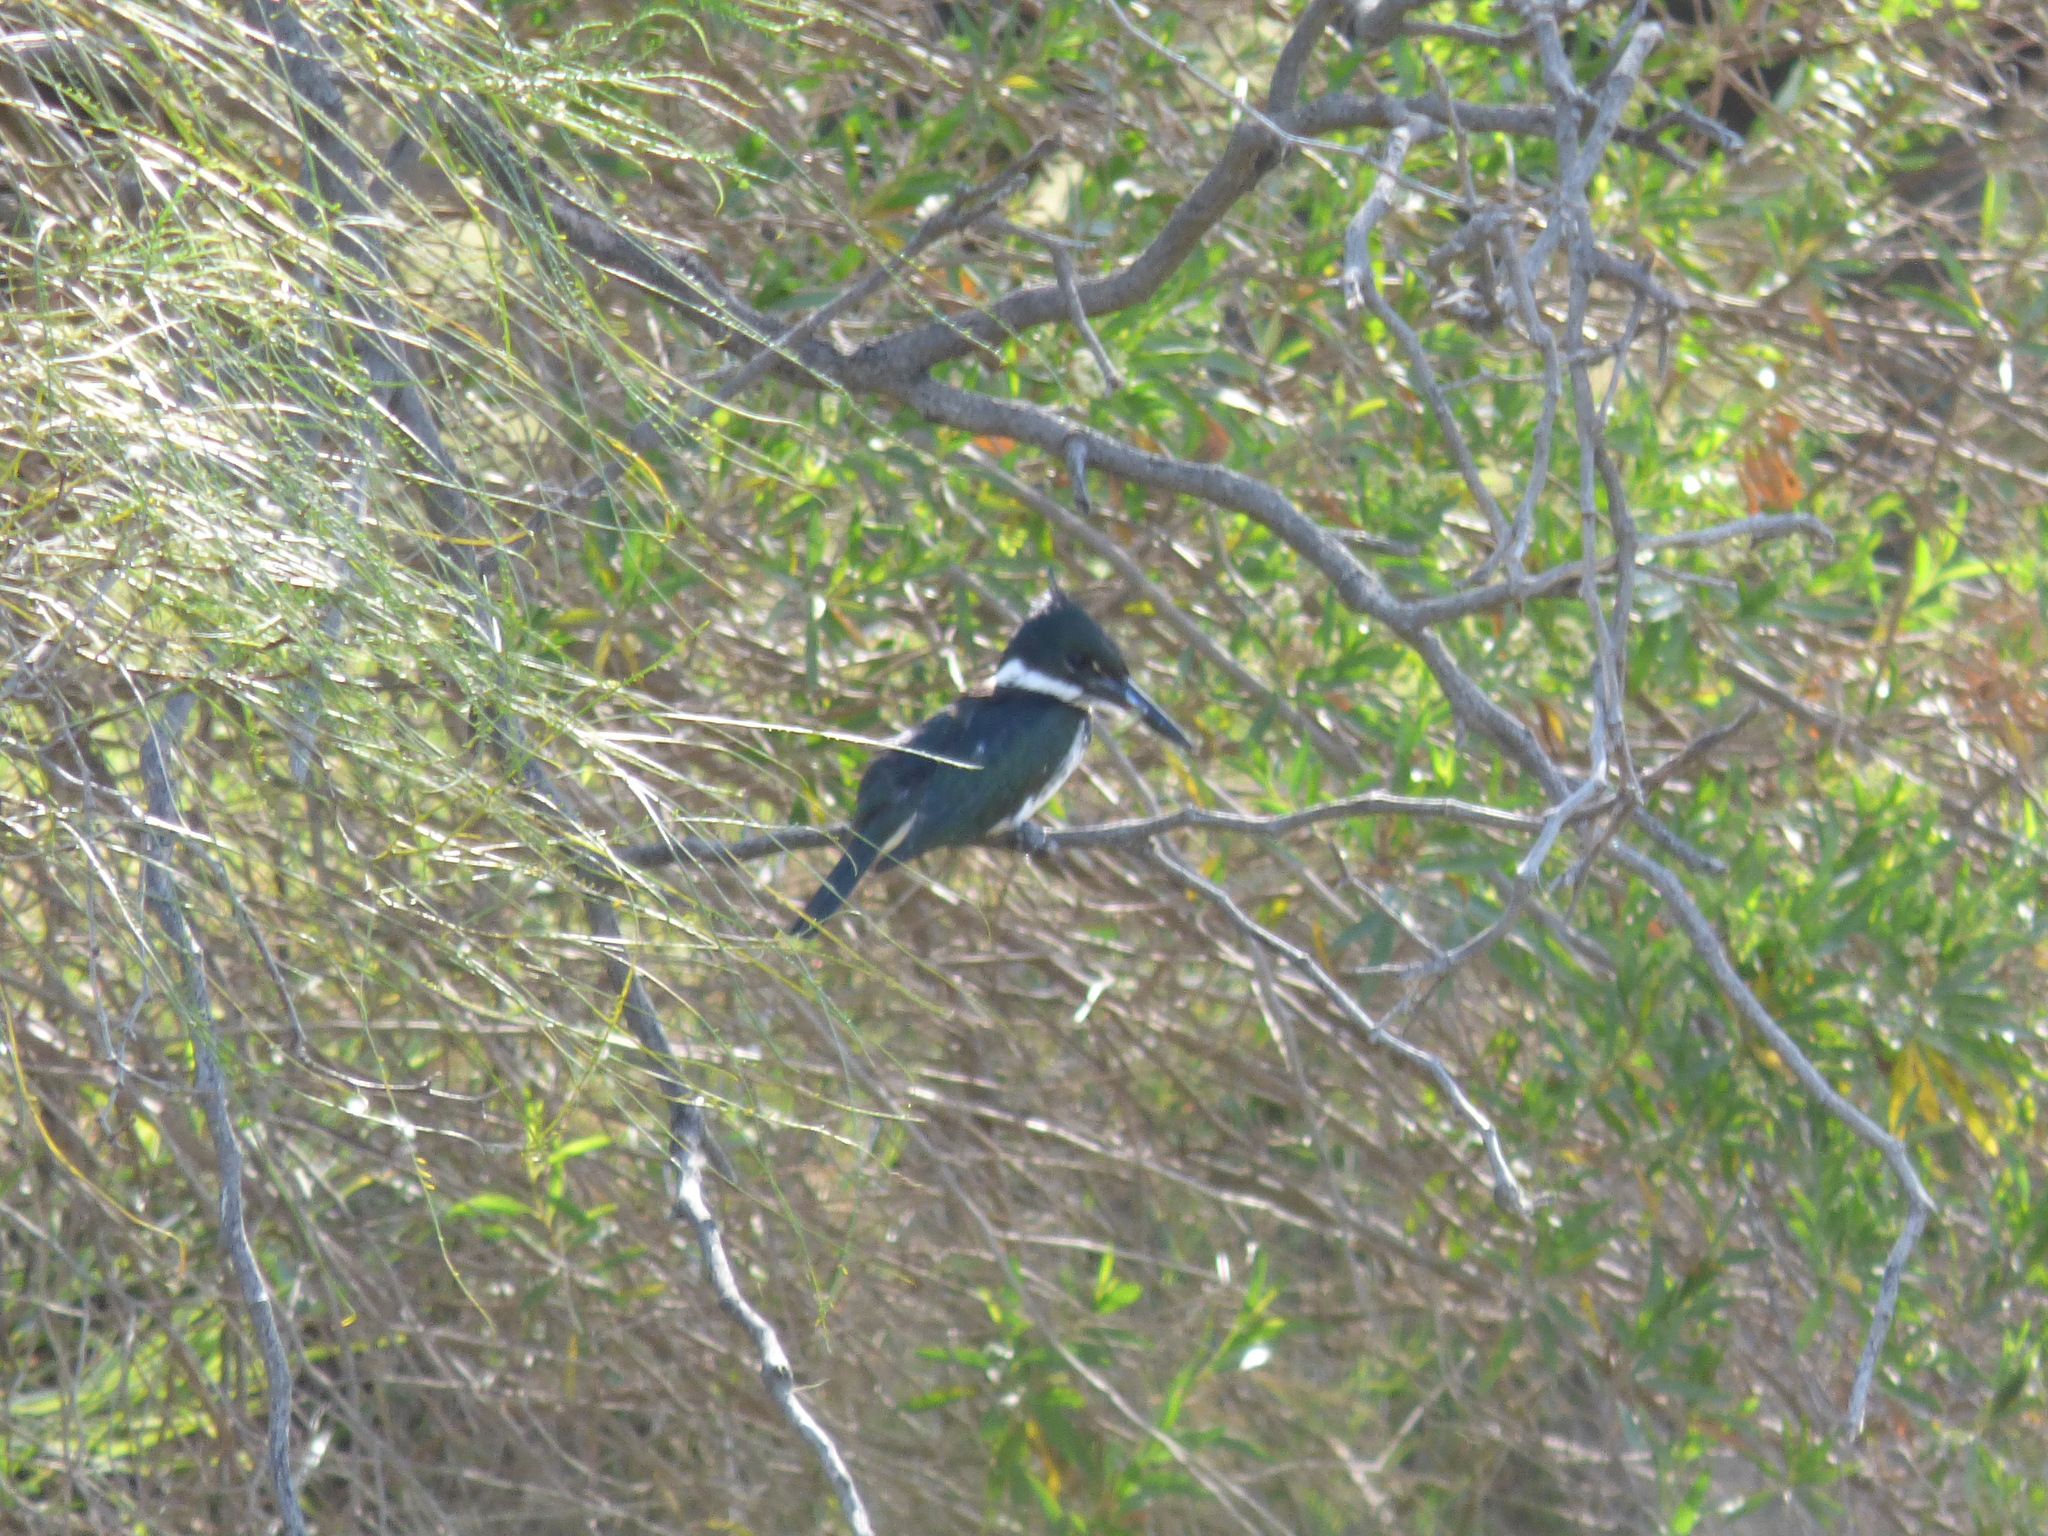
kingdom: Animalia
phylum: Chordata
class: Aves
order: Coraciiformes
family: Alcedinidae
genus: Chloroceryle
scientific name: Chloroceryle amazona
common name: Amazon kingfisher
